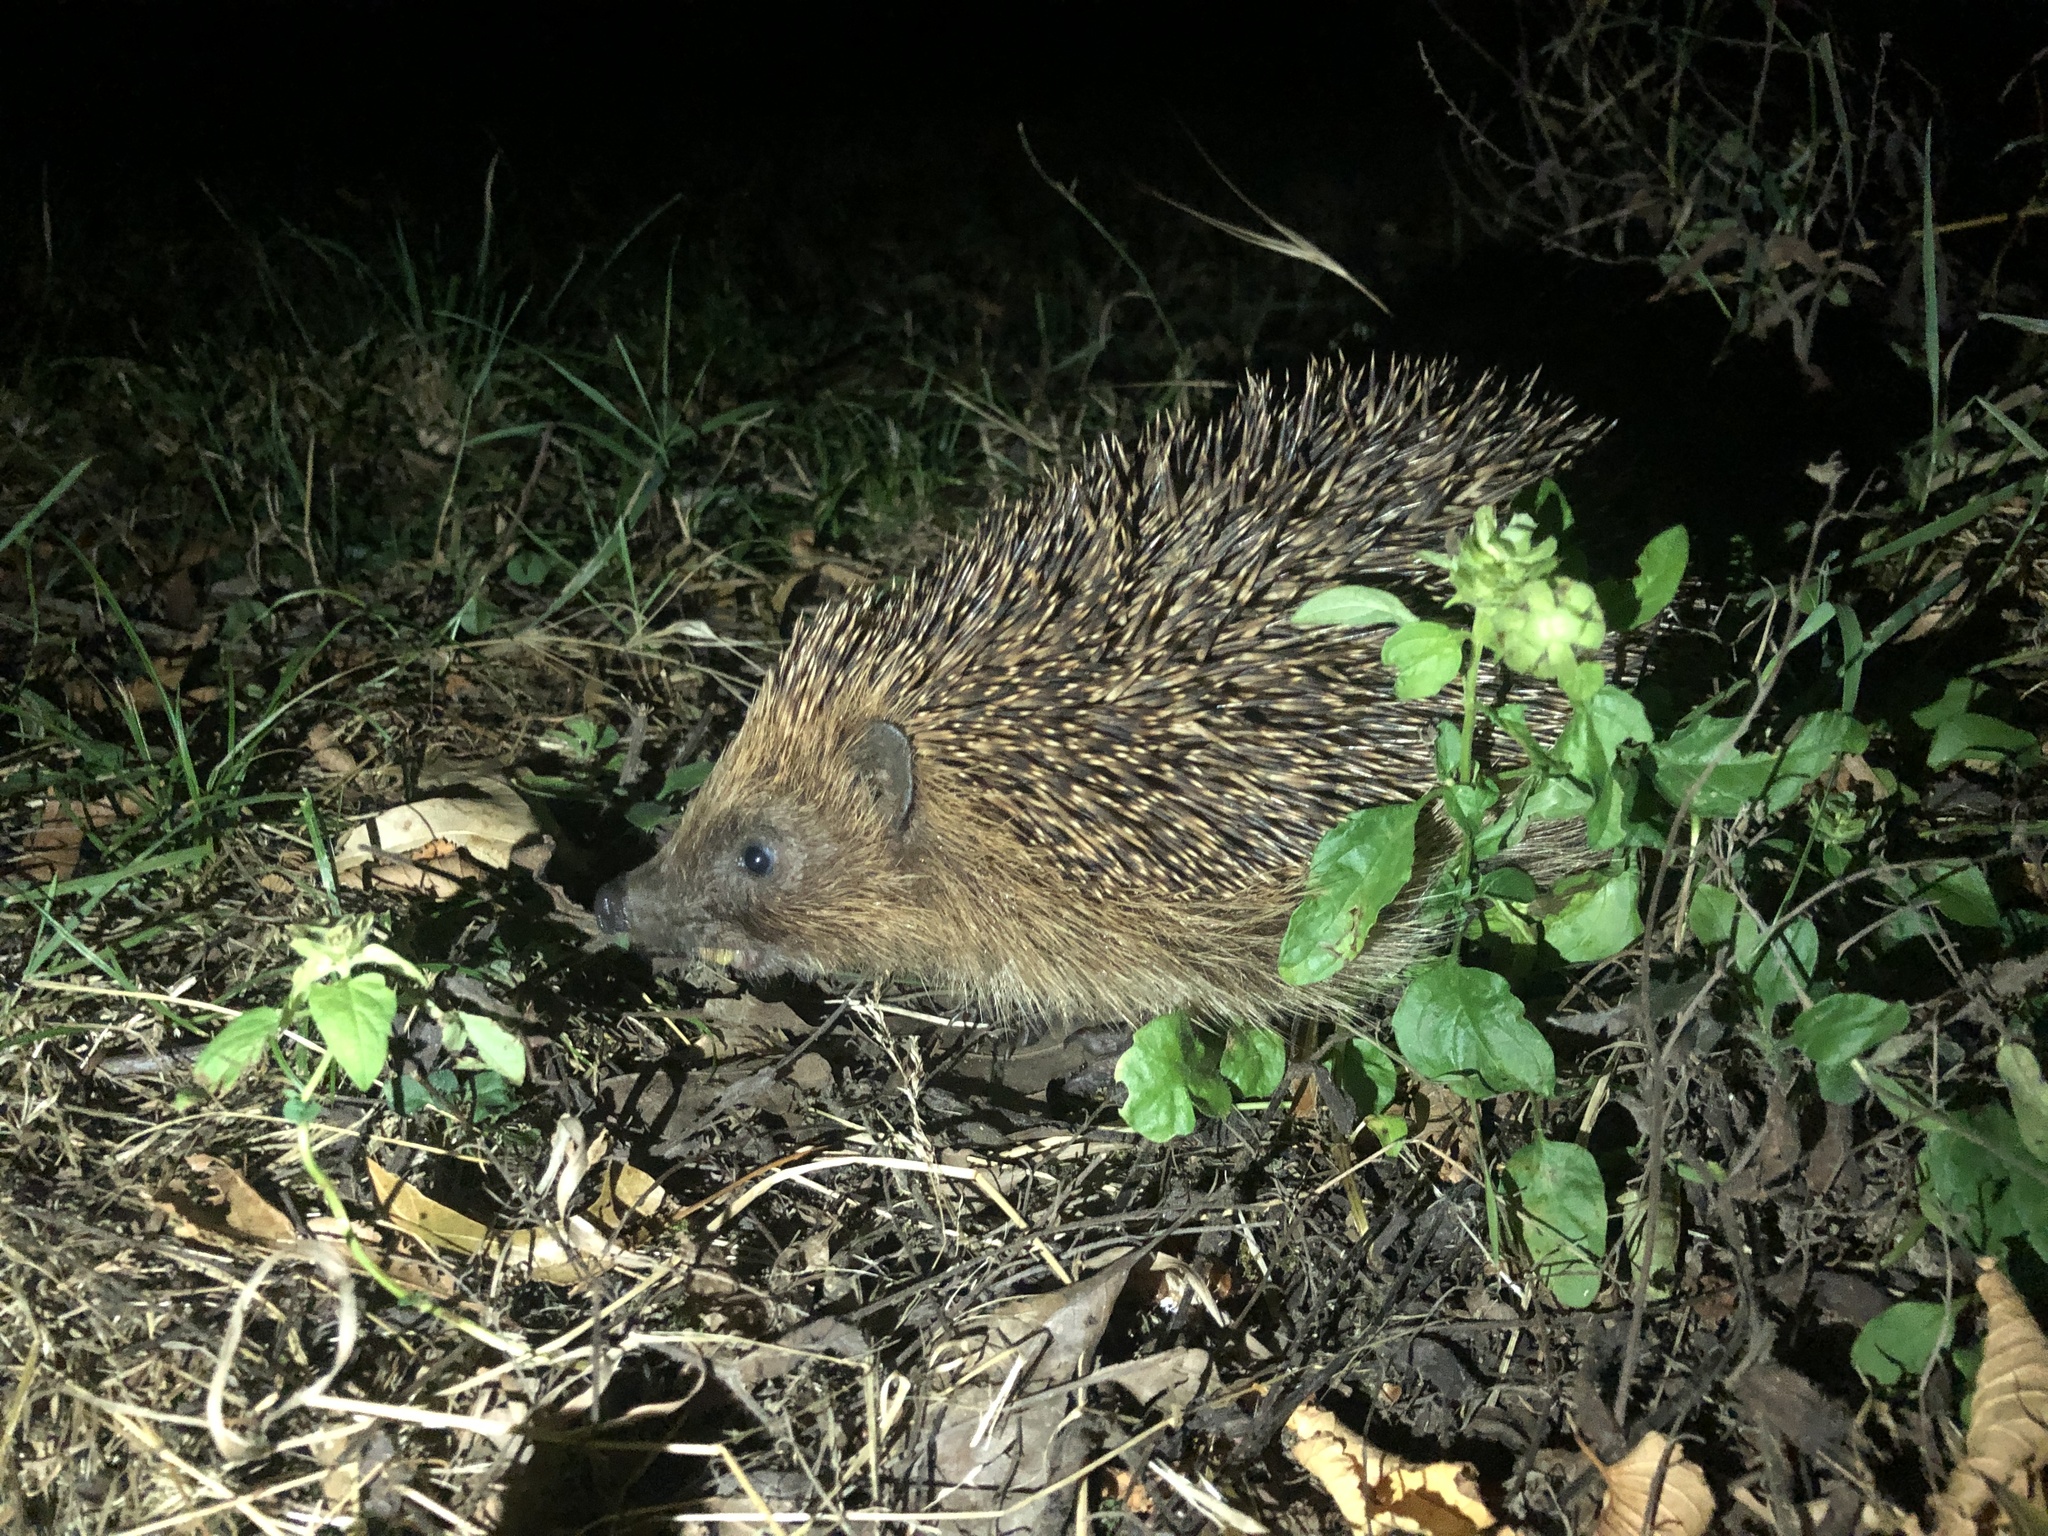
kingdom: Animalia
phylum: Chordata
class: Mammalia
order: Erinaceomorpha
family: Erinaceidae
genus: Erinaceus
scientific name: Erinaceus europaeus
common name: West european hedgehog
